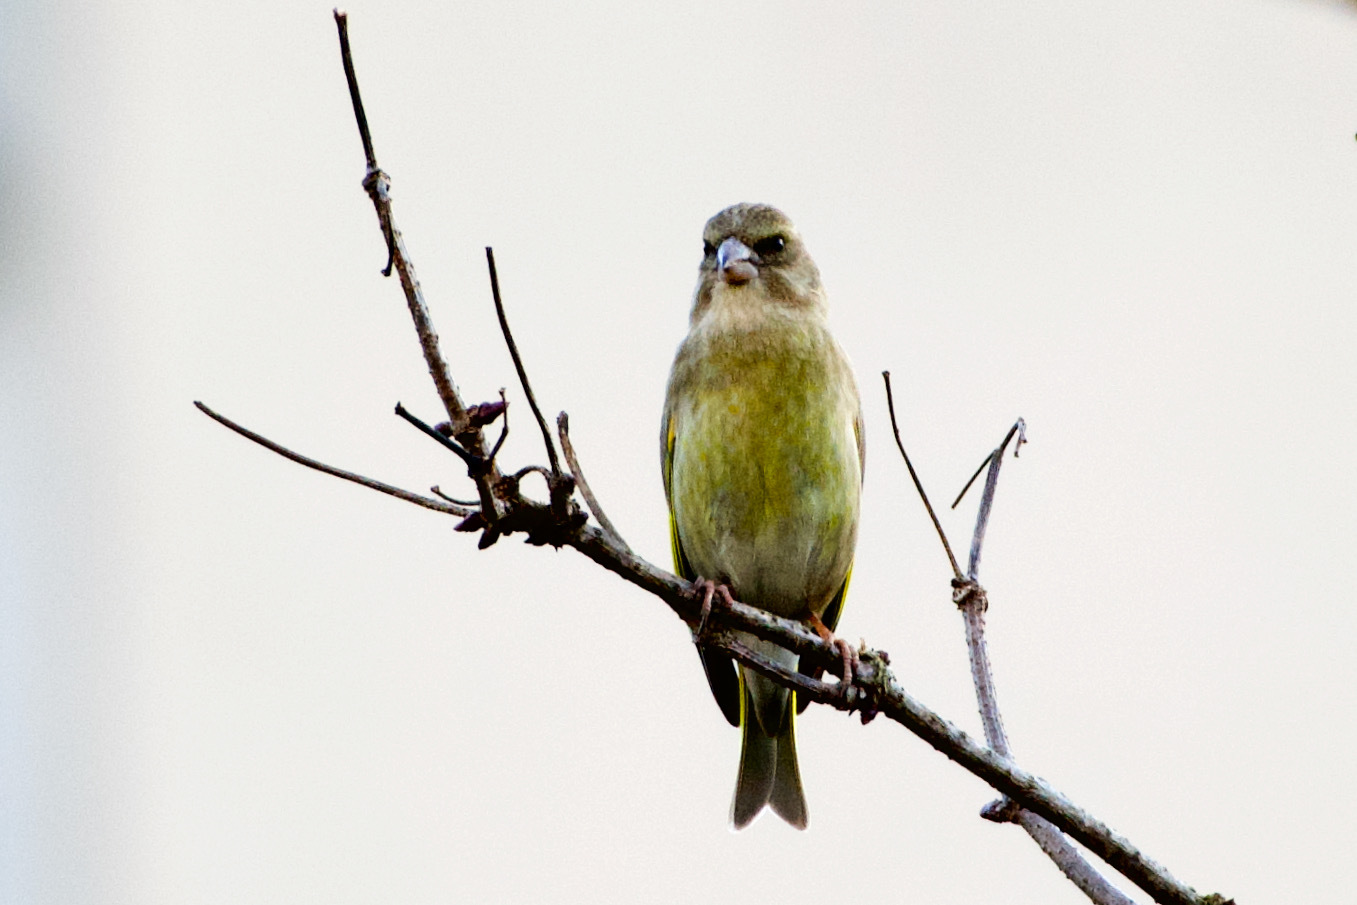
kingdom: Plantae
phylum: Tracheophyta
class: Liliopsida
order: Poales
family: Poaceae
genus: Chloris
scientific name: Chloris chloris
